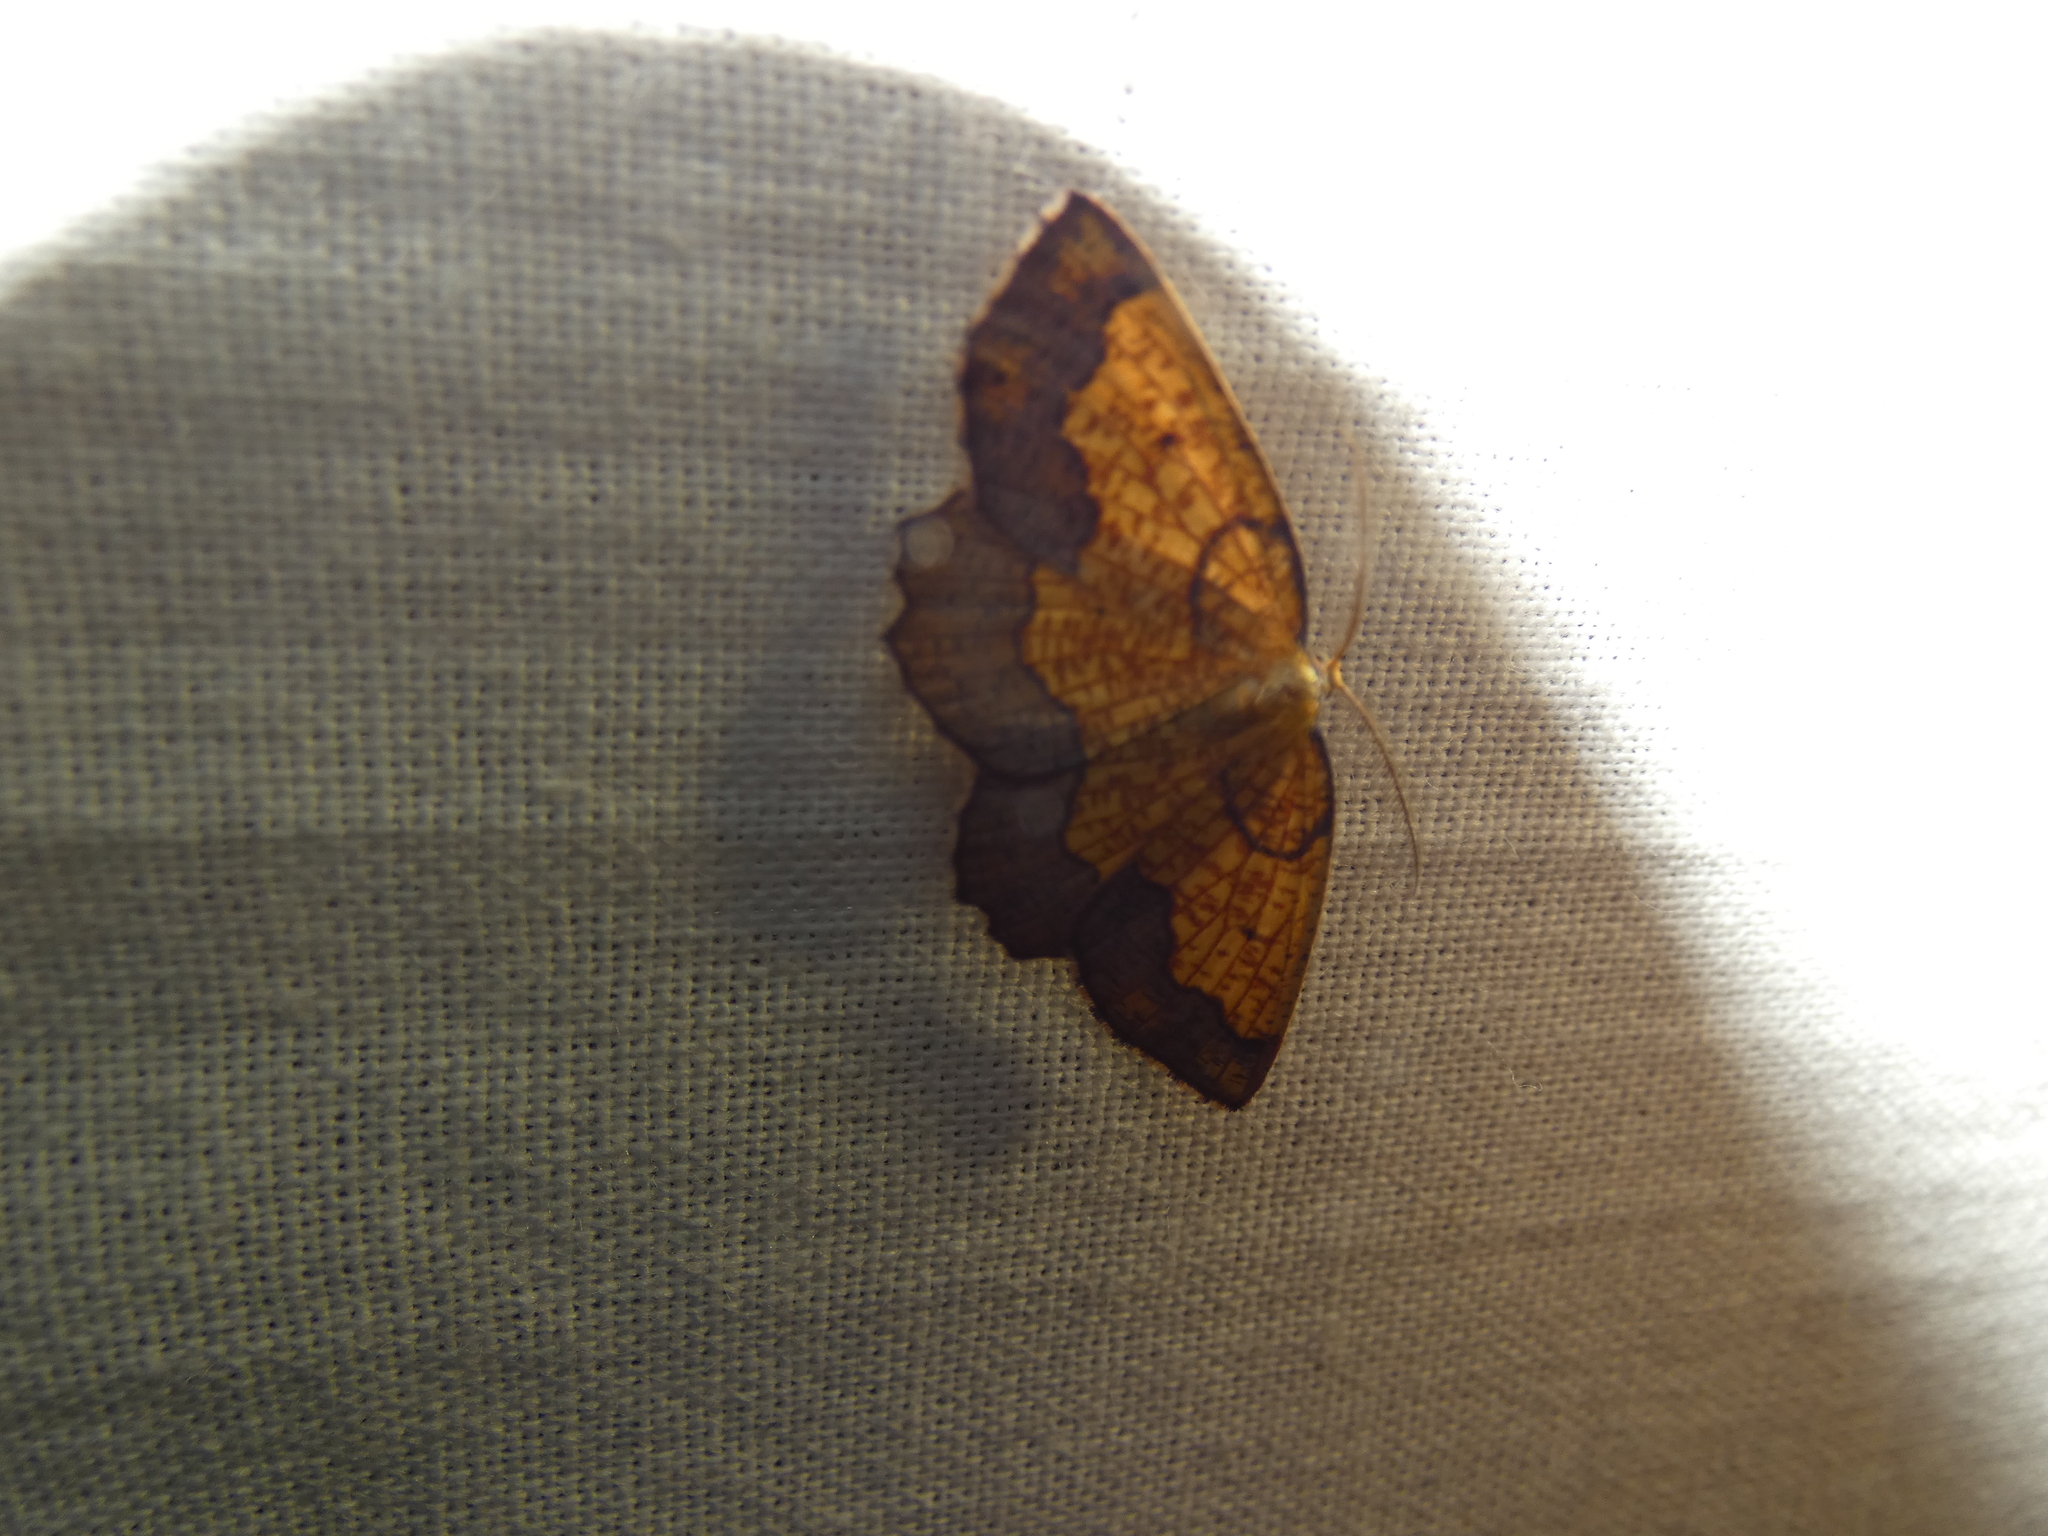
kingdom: Animalia
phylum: Arthropoda
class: Insecta
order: Lepidoptera
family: Geometridae
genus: Epione
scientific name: Epione vespertaria
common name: Dark bordered beauty
